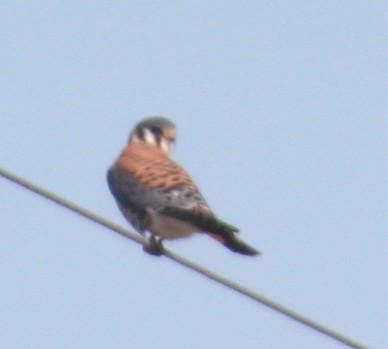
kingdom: Animalia
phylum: Chordata
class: Aves
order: Falconiformes
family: Falconidae
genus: Falco
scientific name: Falco sparverius
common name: American kestrel
